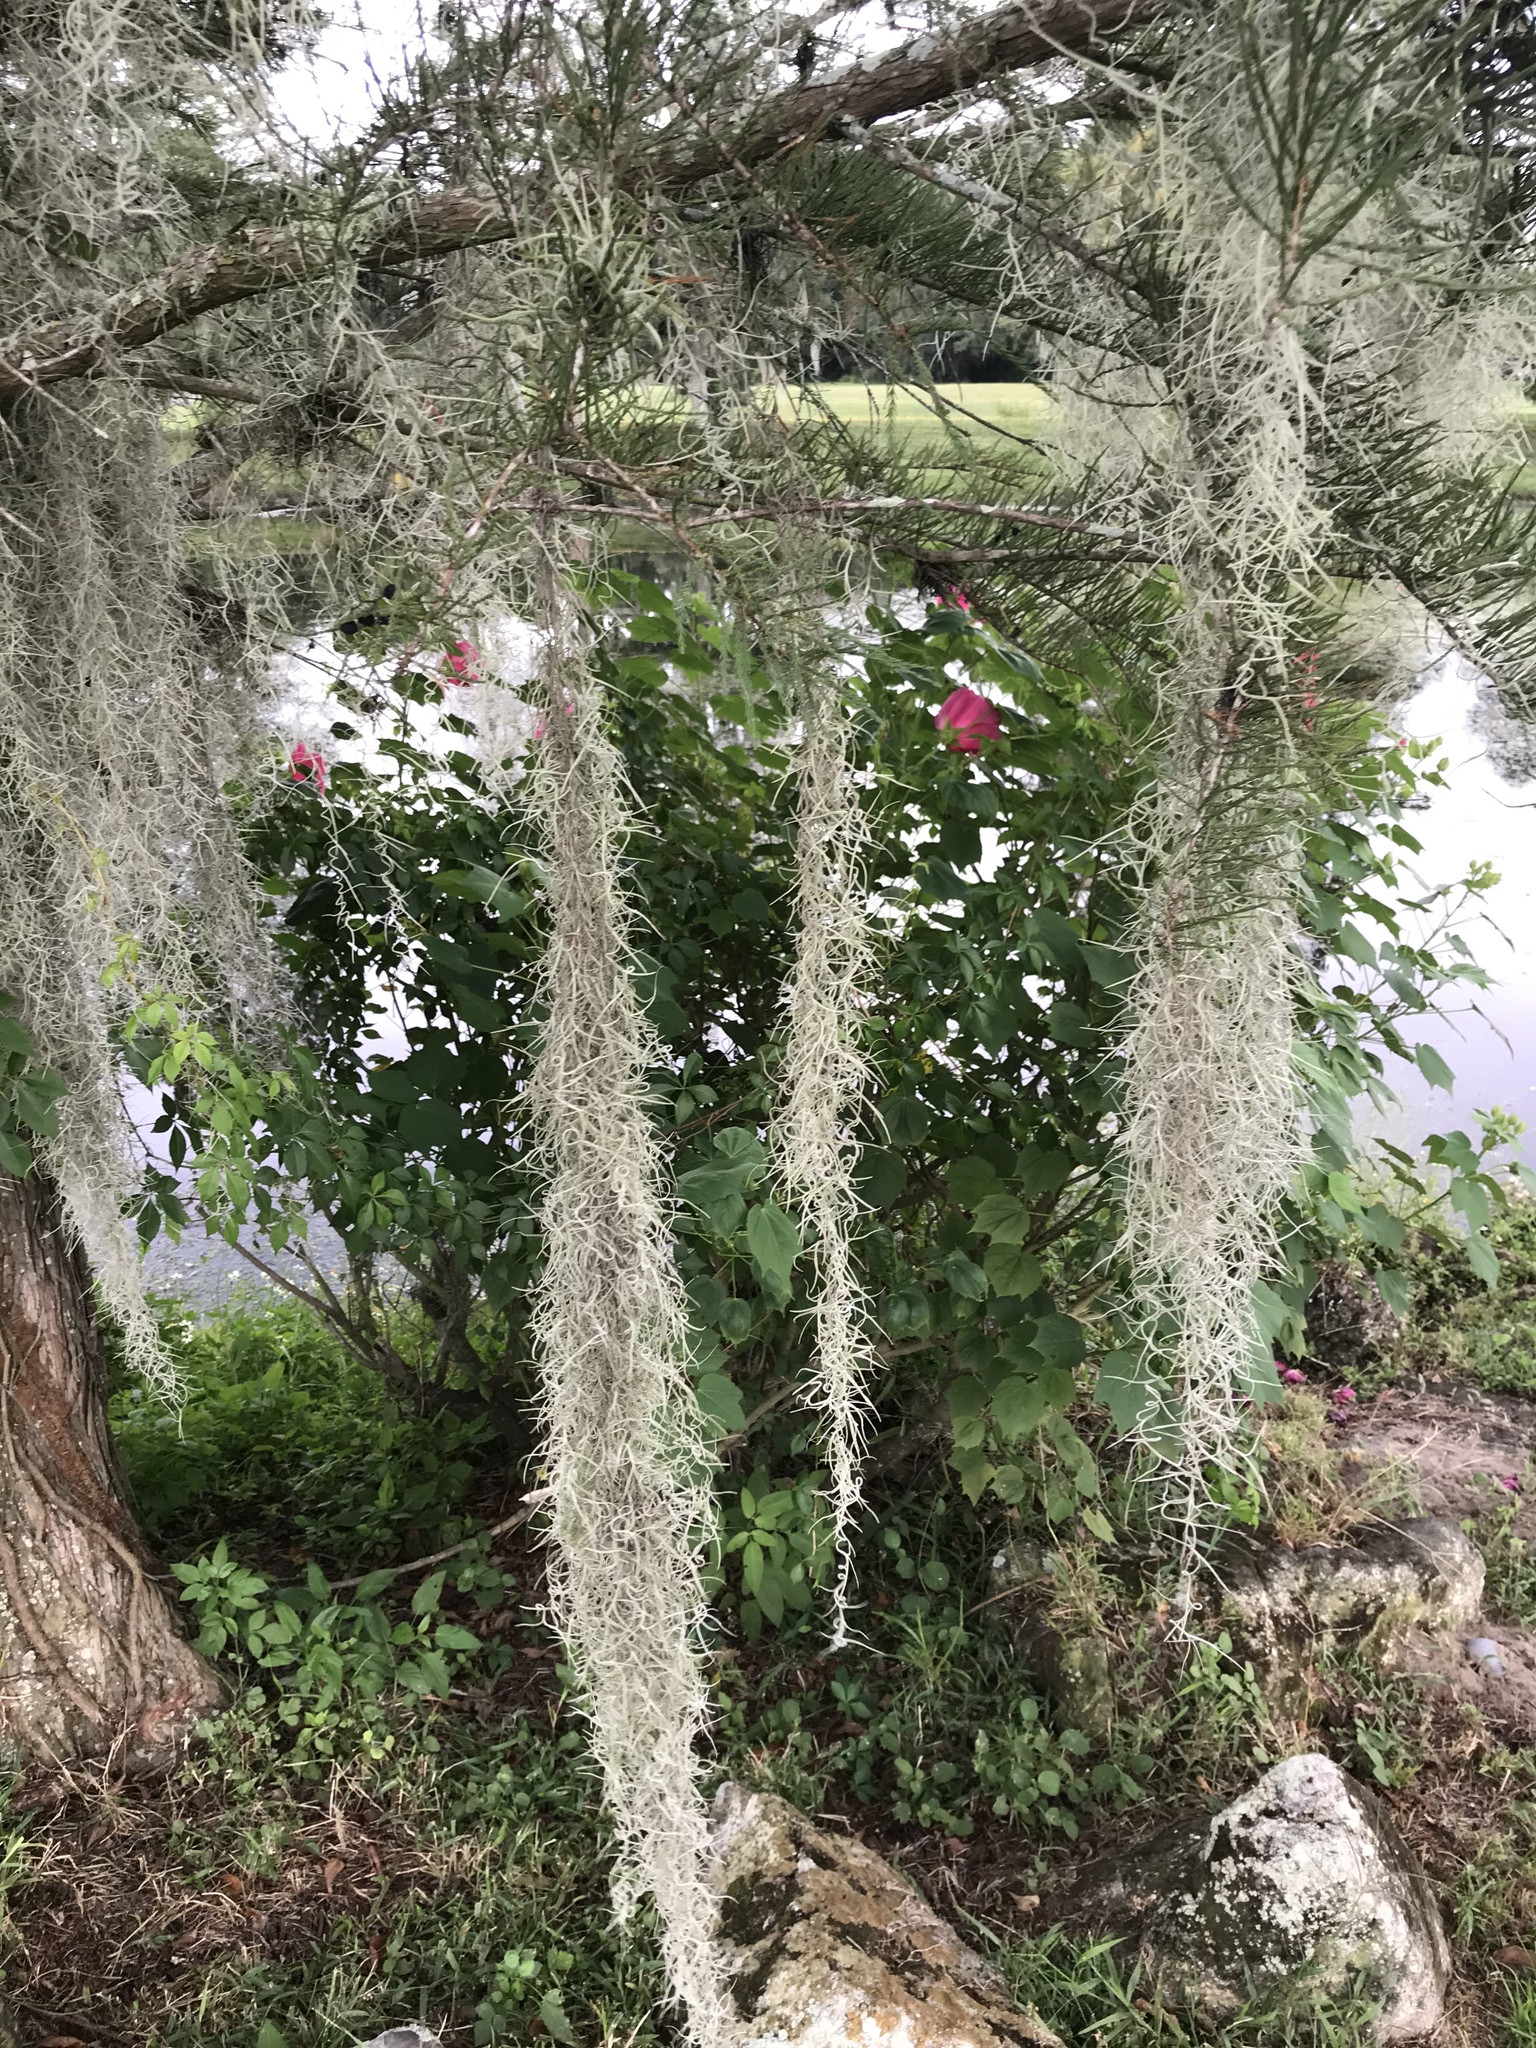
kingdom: Plantae
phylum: Tracheophyta
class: Liliopsida
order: Poales
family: Bromeliaceae
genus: Tillandsia
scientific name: Tillandsia usneoides
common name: Spanish moss
